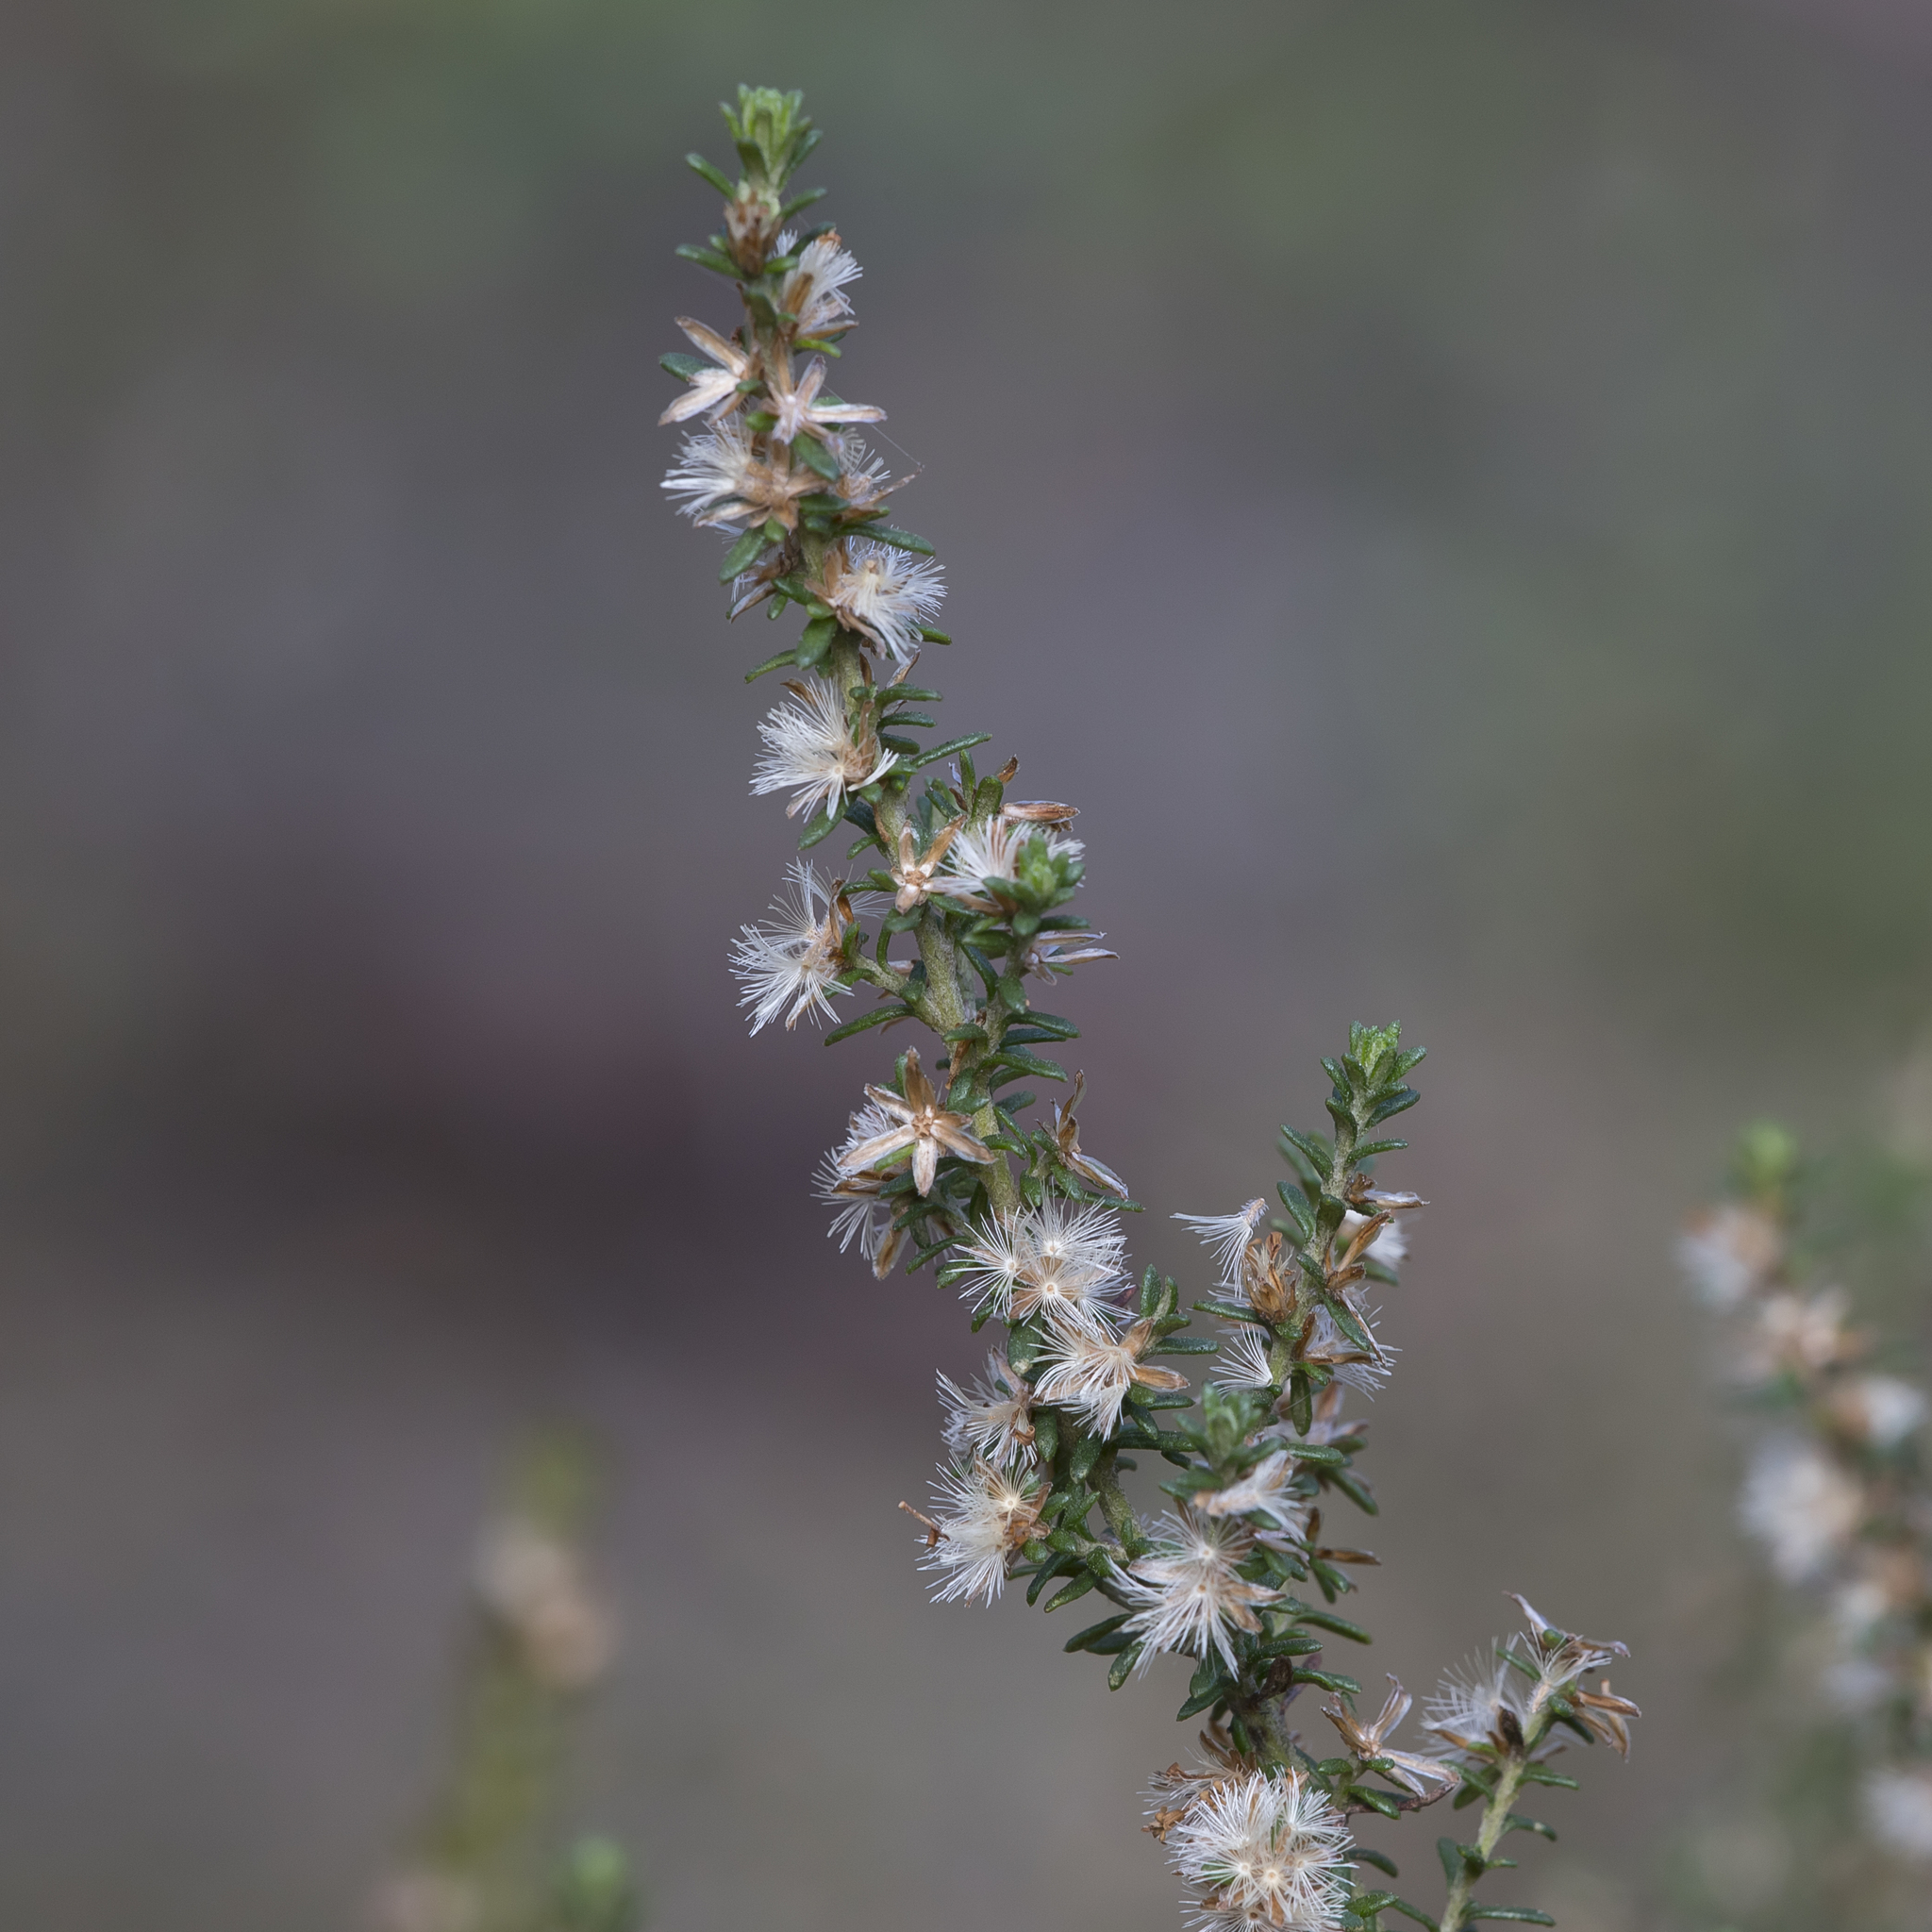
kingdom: Plantae
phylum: Tracheophyta
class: Magnoliopsida
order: Asterales
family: Asteraceae
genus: Olearia
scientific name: Olearia axillaris
